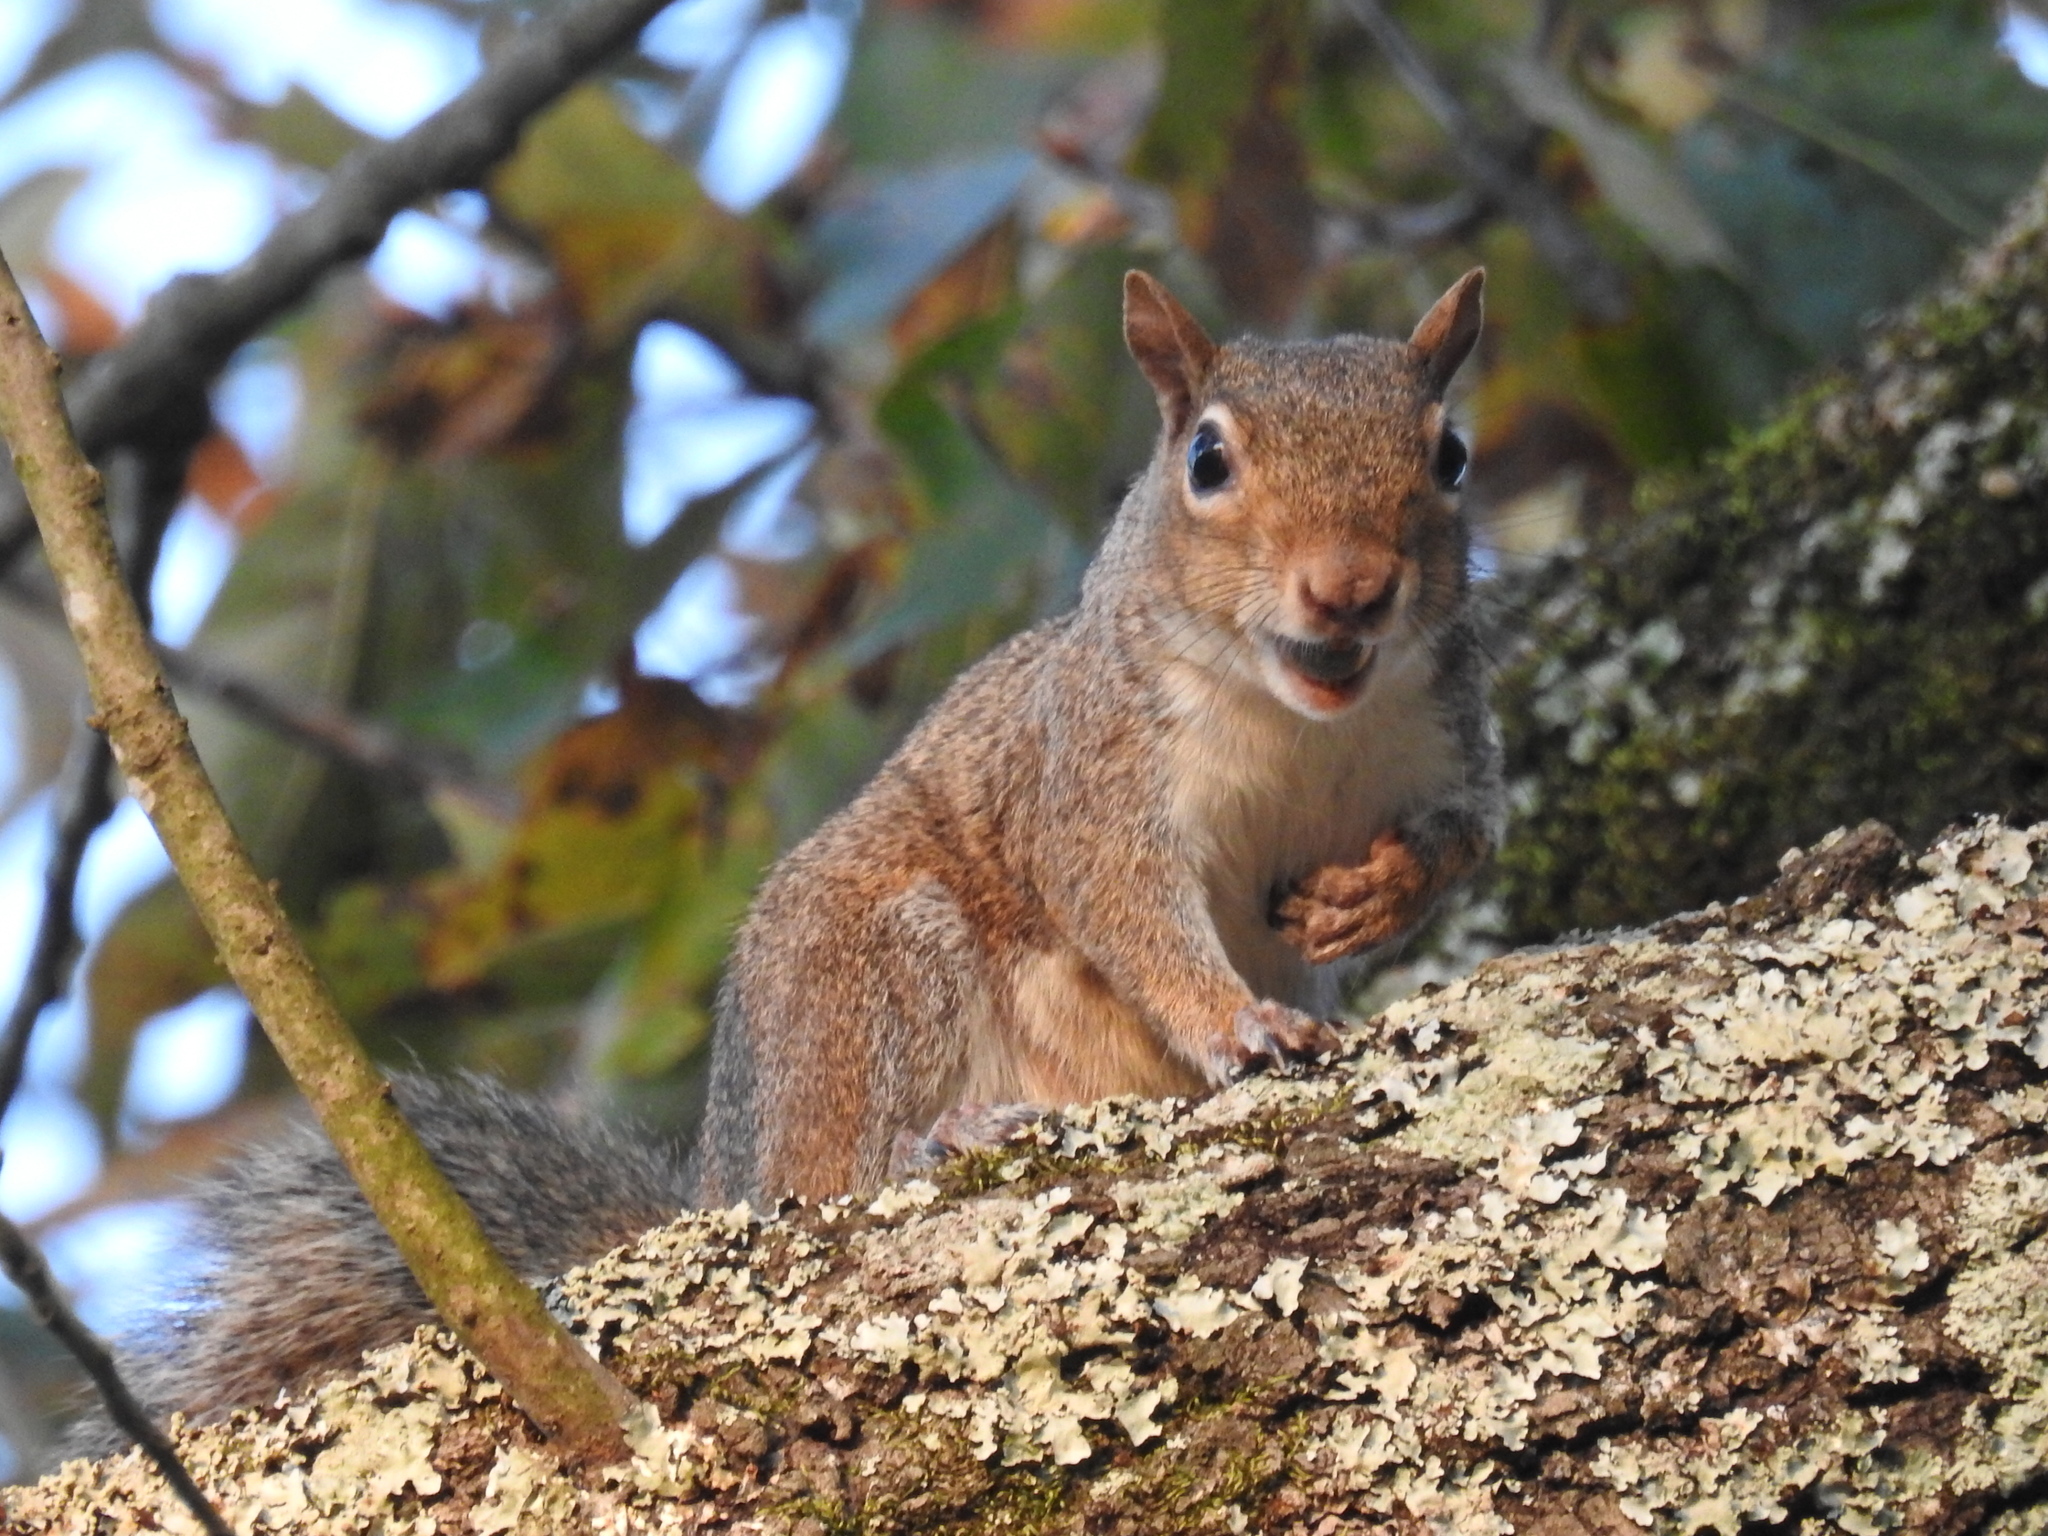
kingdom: Animalia
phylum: Chordata
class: Mammalia
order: Rodentia
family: Sciuridae
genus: Sciurus
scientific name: Sciurus carolinensis
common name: Eastern gray squirrel
